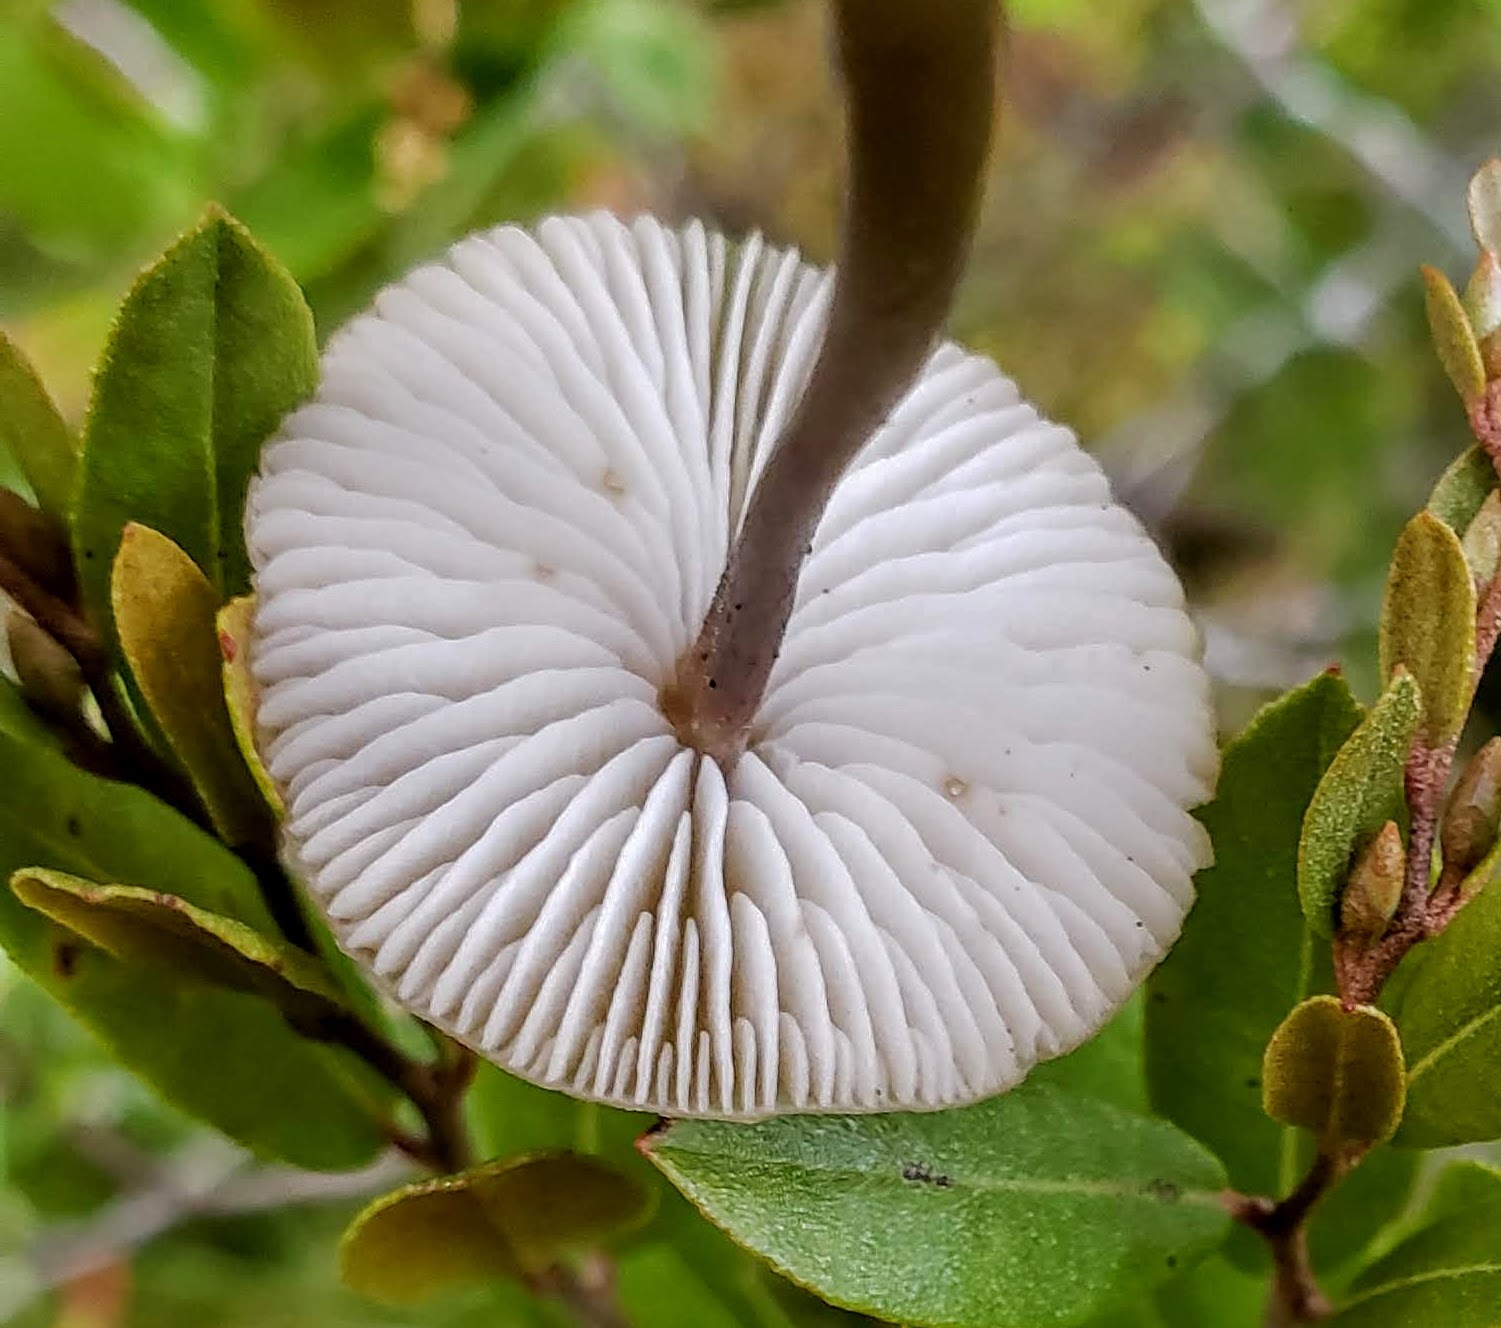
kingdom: Fungi
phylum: Basidiomycota
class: Agaricomycetes
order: Agaricales
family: Lyophyllaceae
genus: Sphagnurus
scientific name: Sphagnurus paluster
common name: Sphagnum greyling
